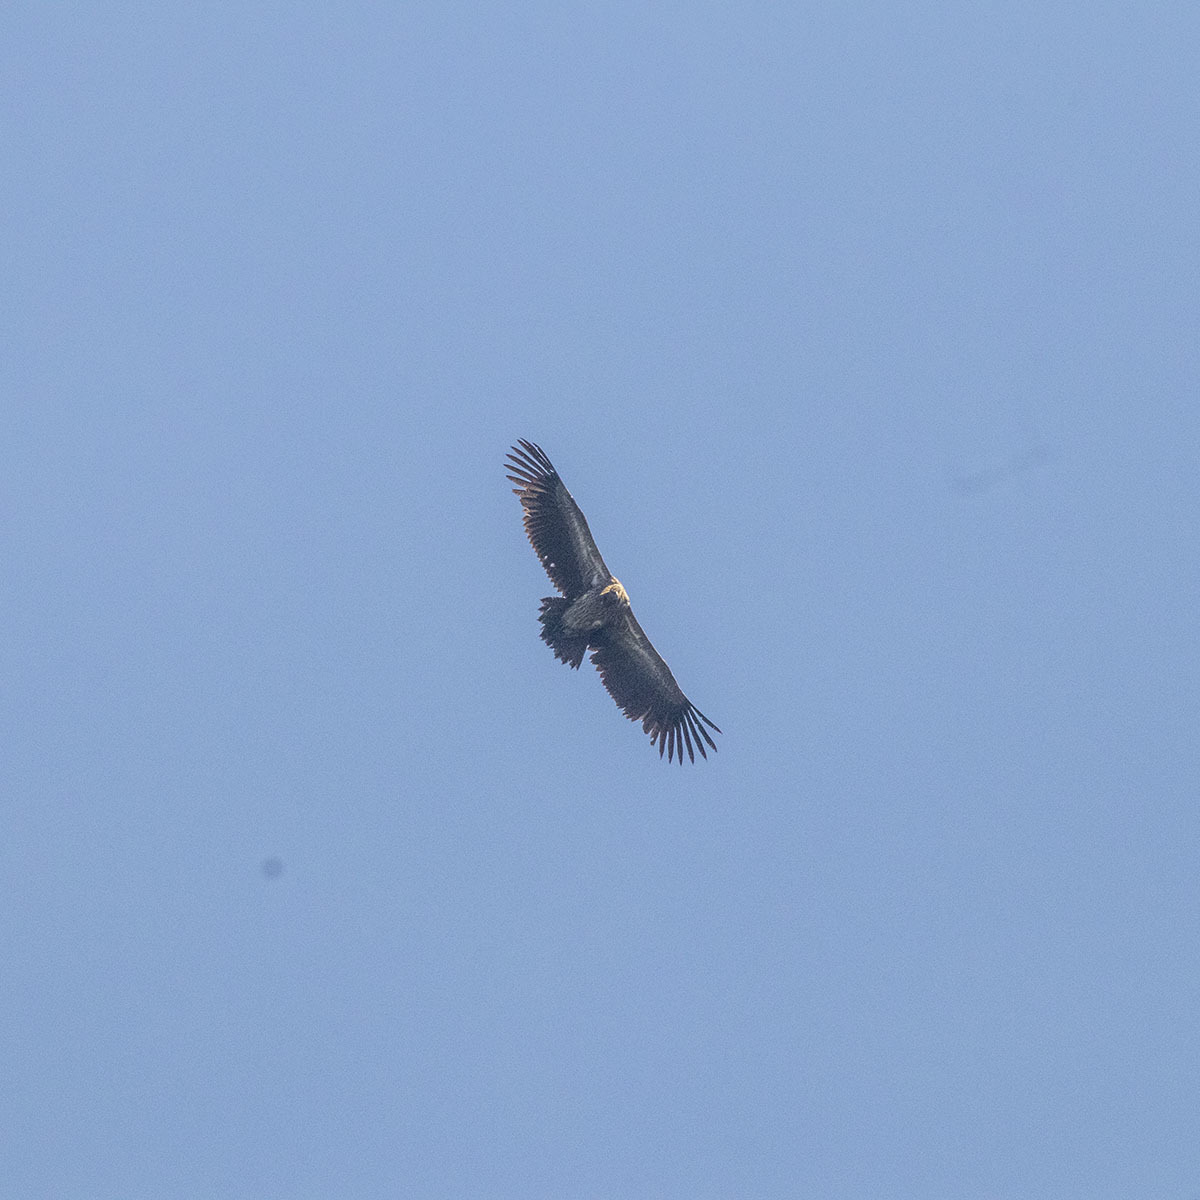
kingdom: Animalia
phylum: Chordata
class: Aves
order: Accipitriformes
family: Accipitridae
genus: Gyps
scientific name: Gyps himalayensis
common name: Himalayan griffon
